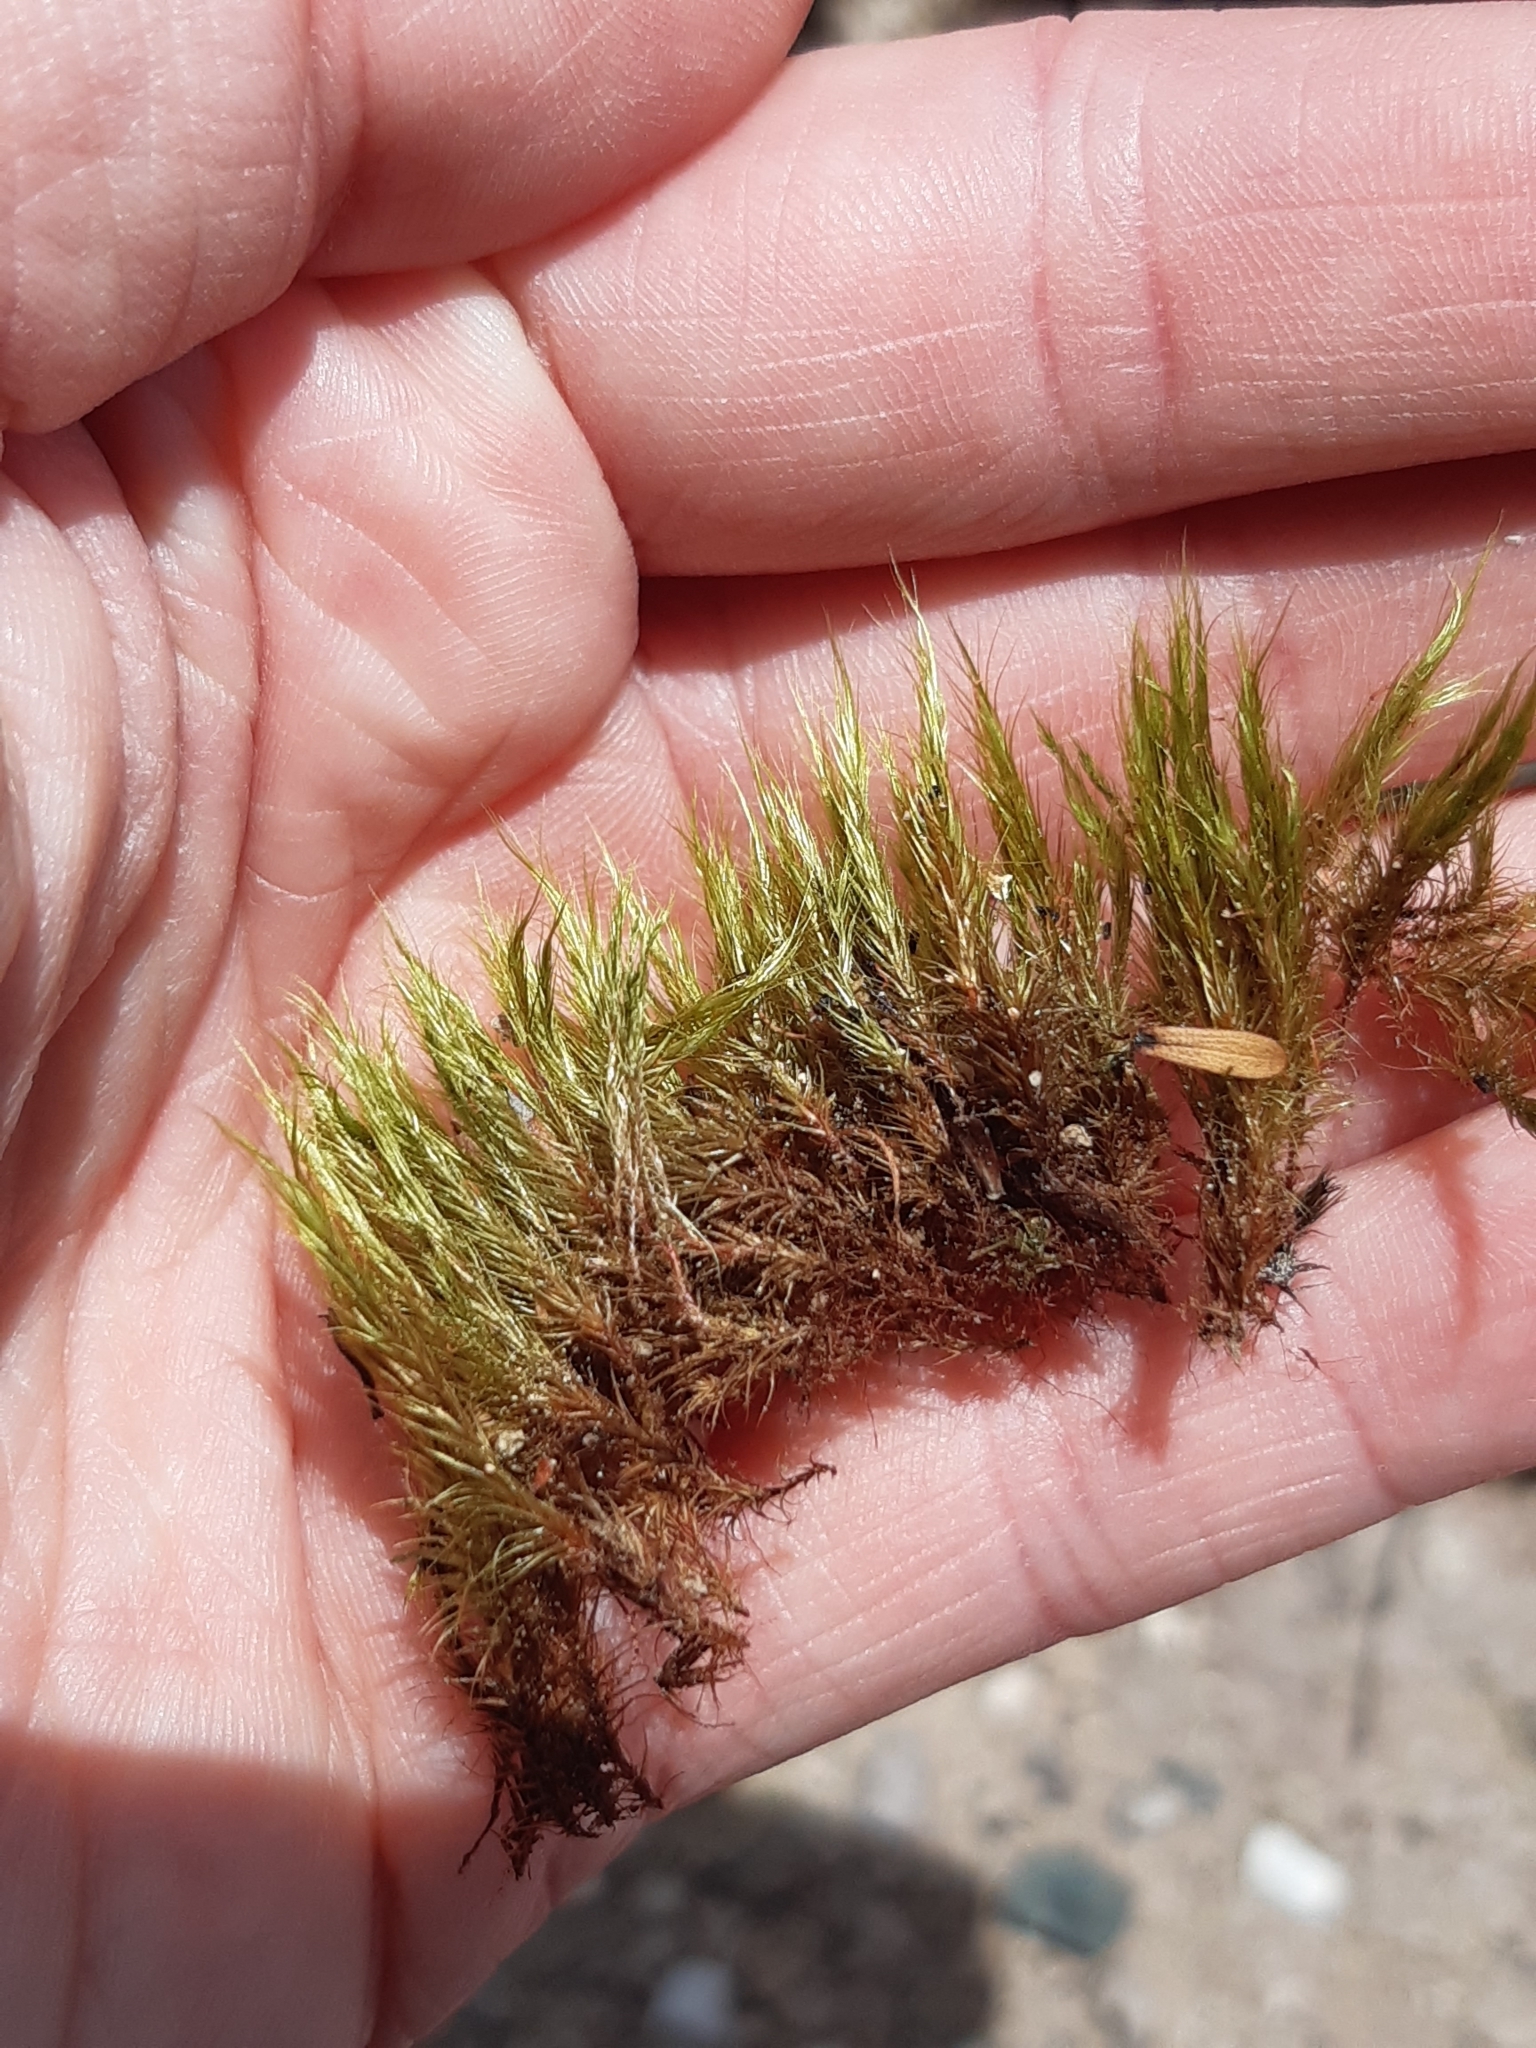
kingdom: Plantae
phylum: Bryophyta
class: Bryopsida
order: Dicranales
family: Leucobryaceae
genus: Campylopus
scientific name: Campylopus pyriformis
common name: Dwarf swan-neck moss
